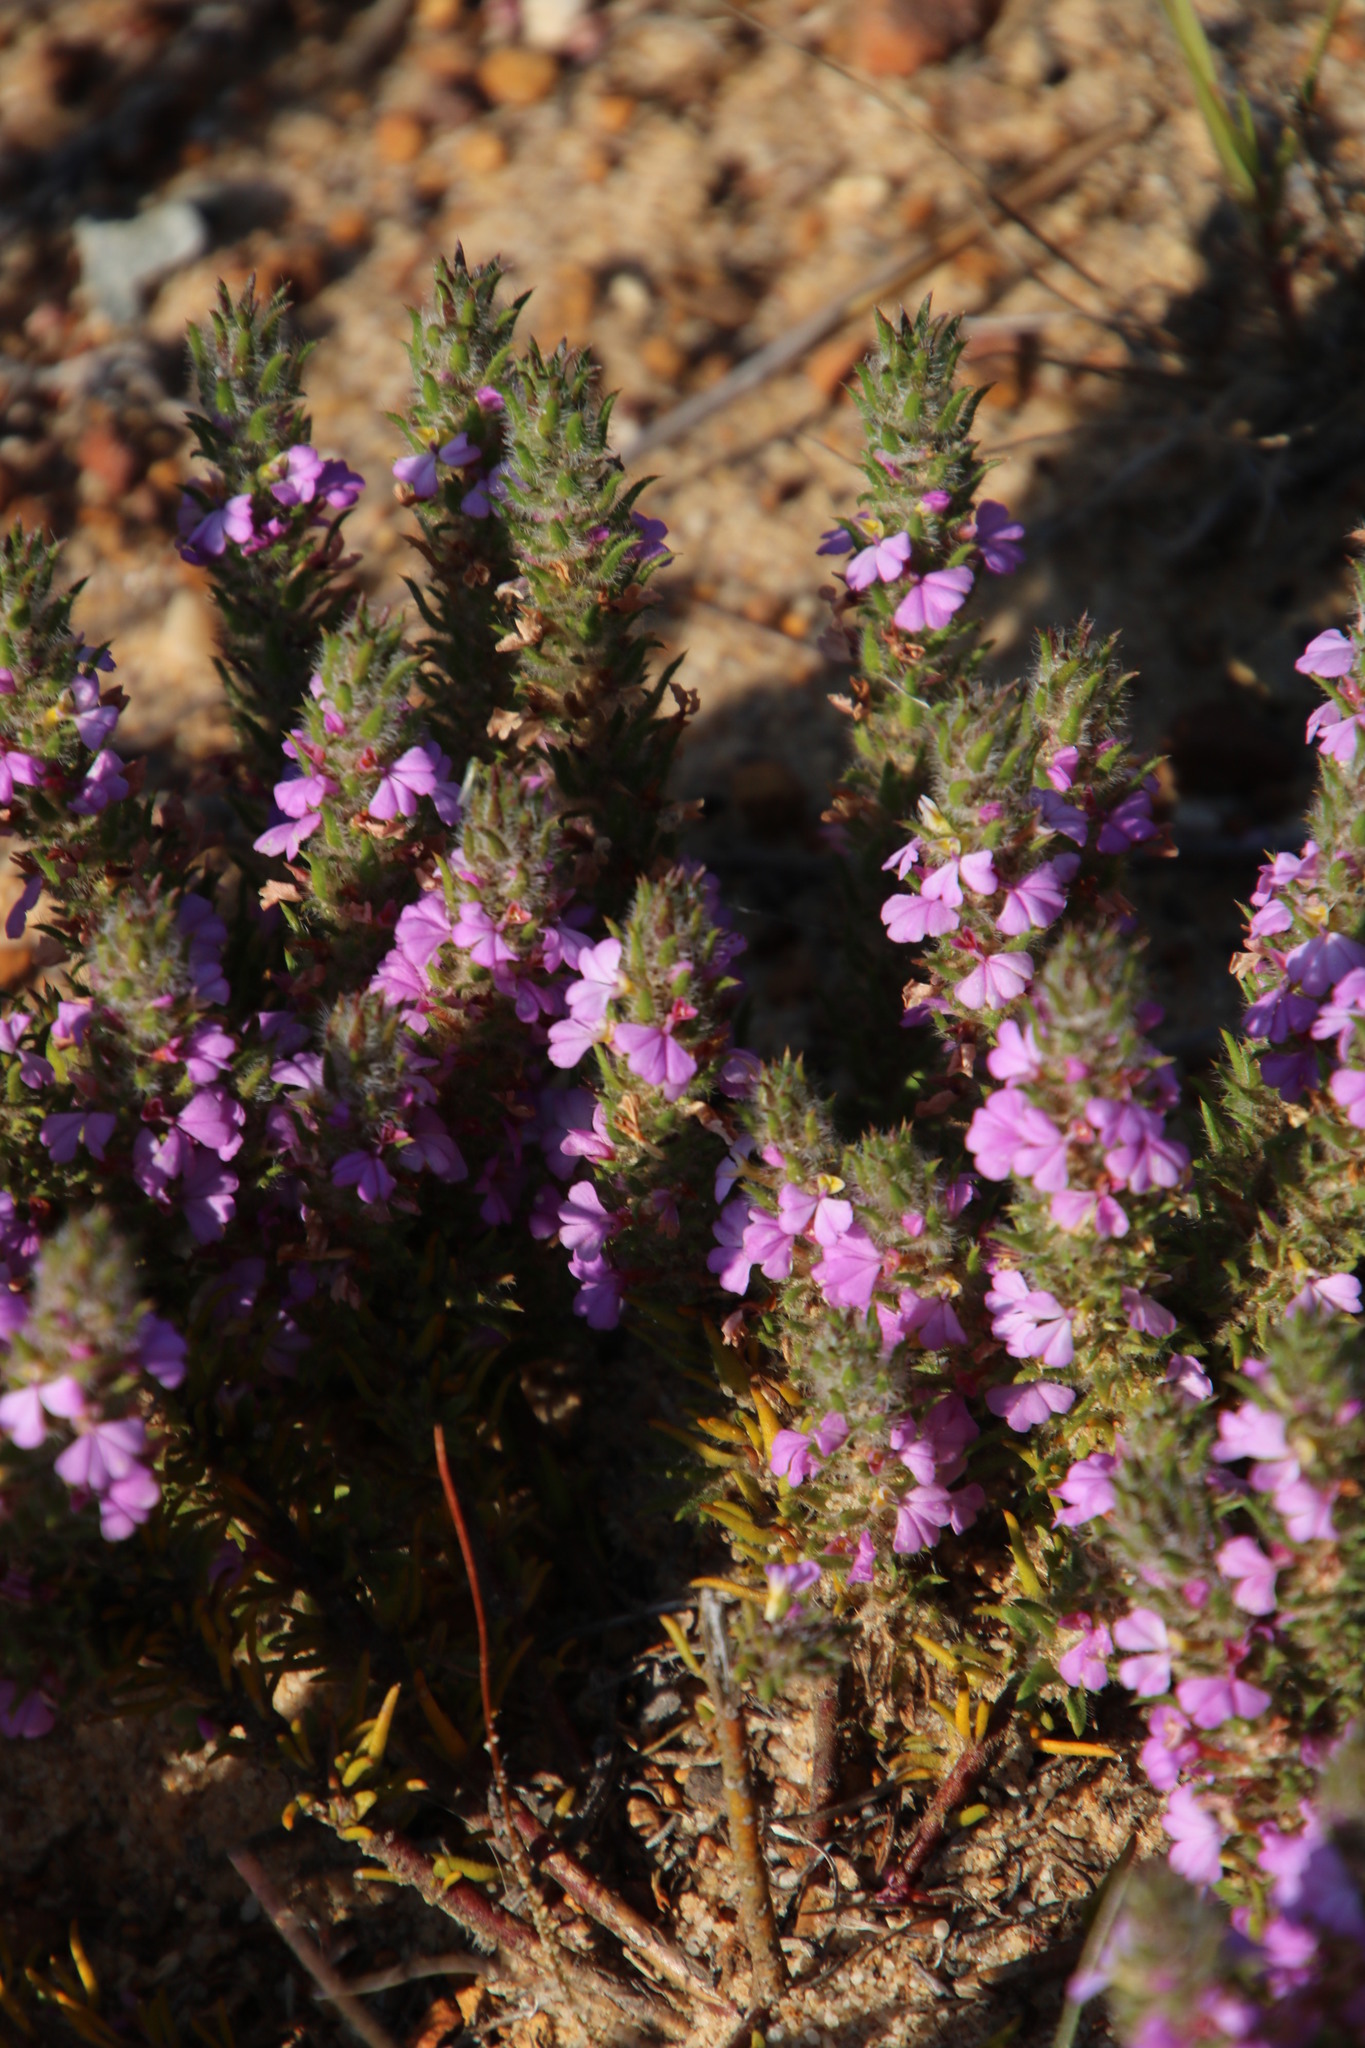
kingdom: Plantae
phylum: Tracheophyta
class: Magnoliopsida
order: Fabales
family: Polygalaceae
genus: Muraltia
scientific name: Muraltia thunbergii
